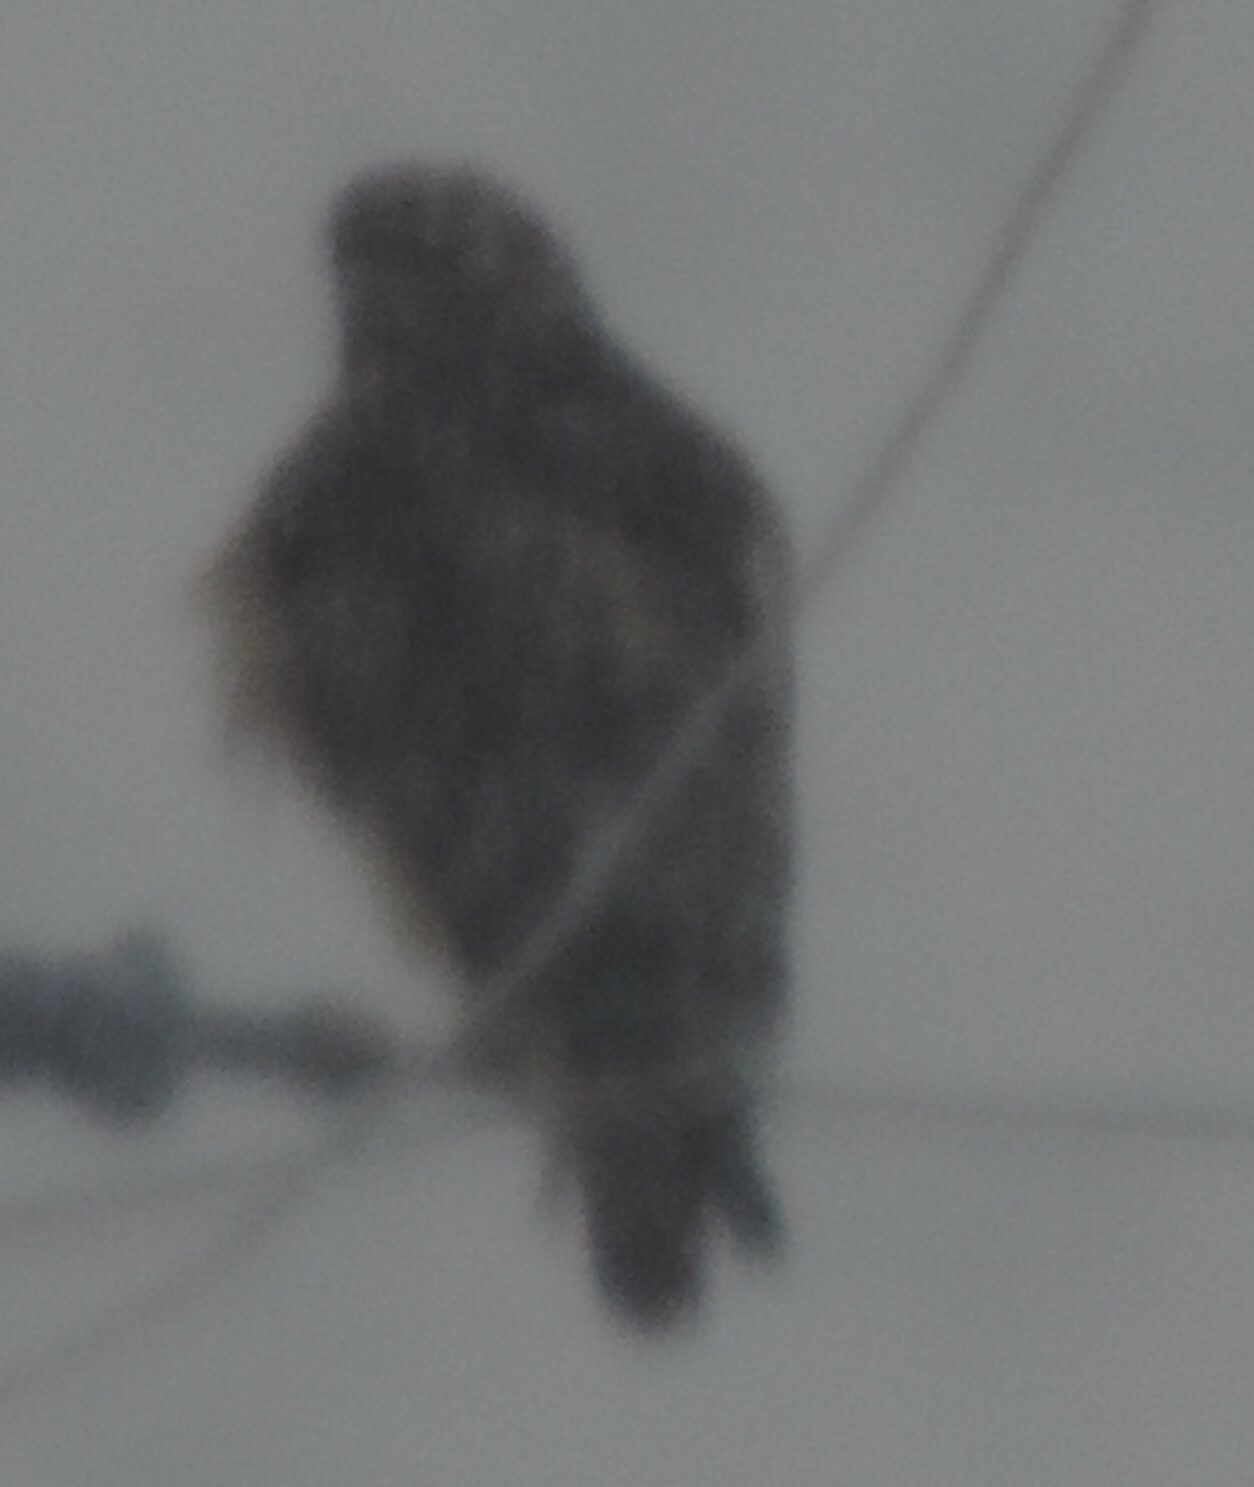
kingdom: Animalia
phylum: Chordata
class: Aves
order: Accipitriformes
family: Accipitridae
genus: Buteo
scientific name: Buteo jamaicensis
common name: Red-tailed hawk
